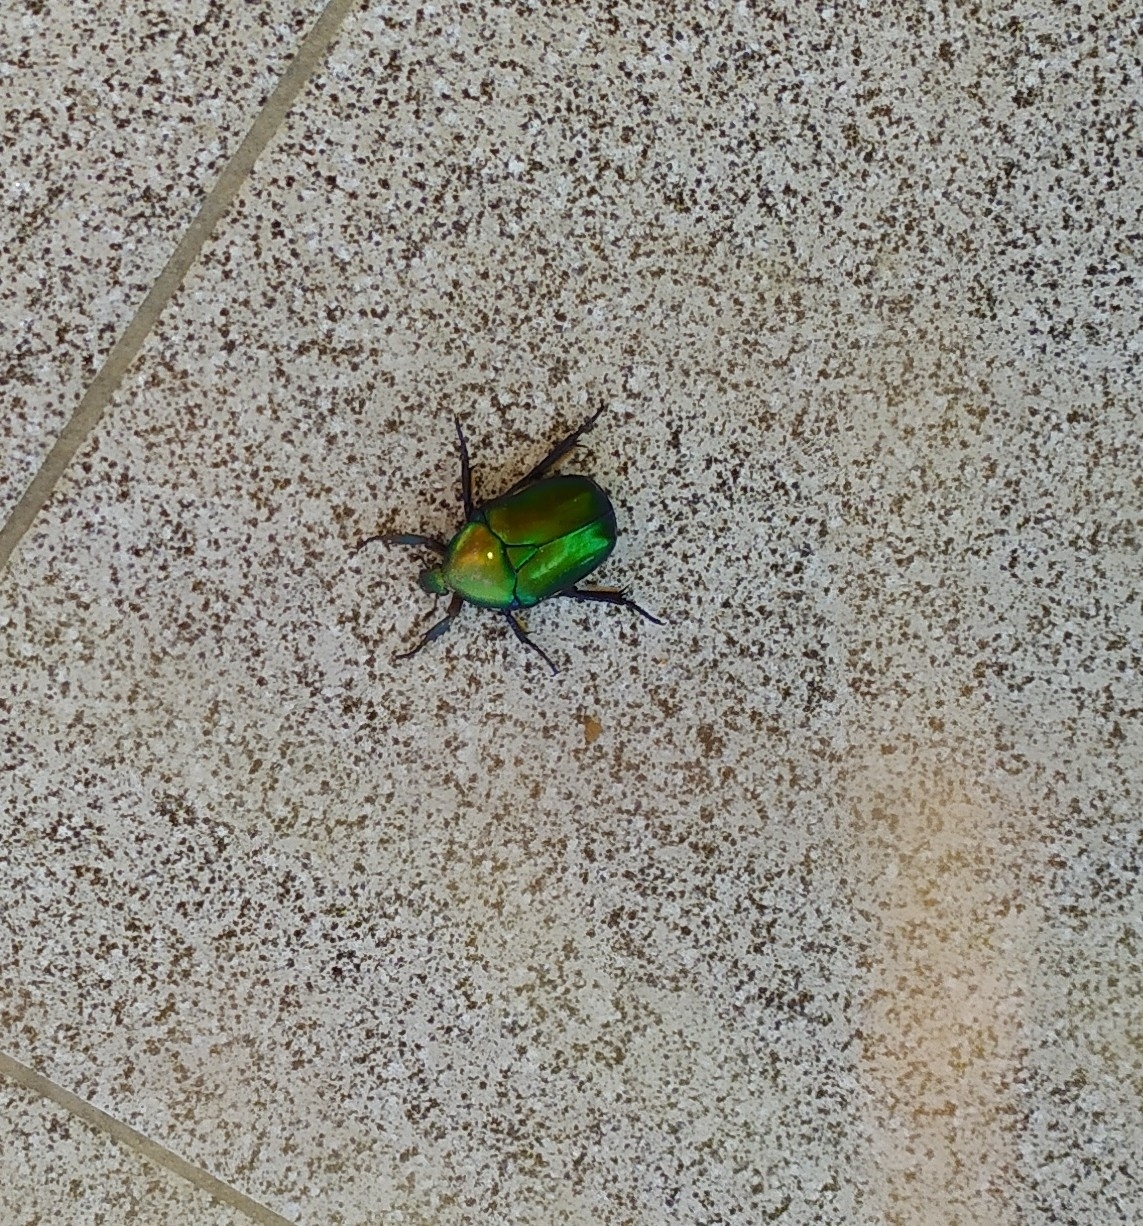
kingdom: Animalia
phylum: Arthropoda
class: Insecta
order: Coleoptera
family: Scarabaeidae
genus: Protaetia
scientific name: Protaetia speciosa
